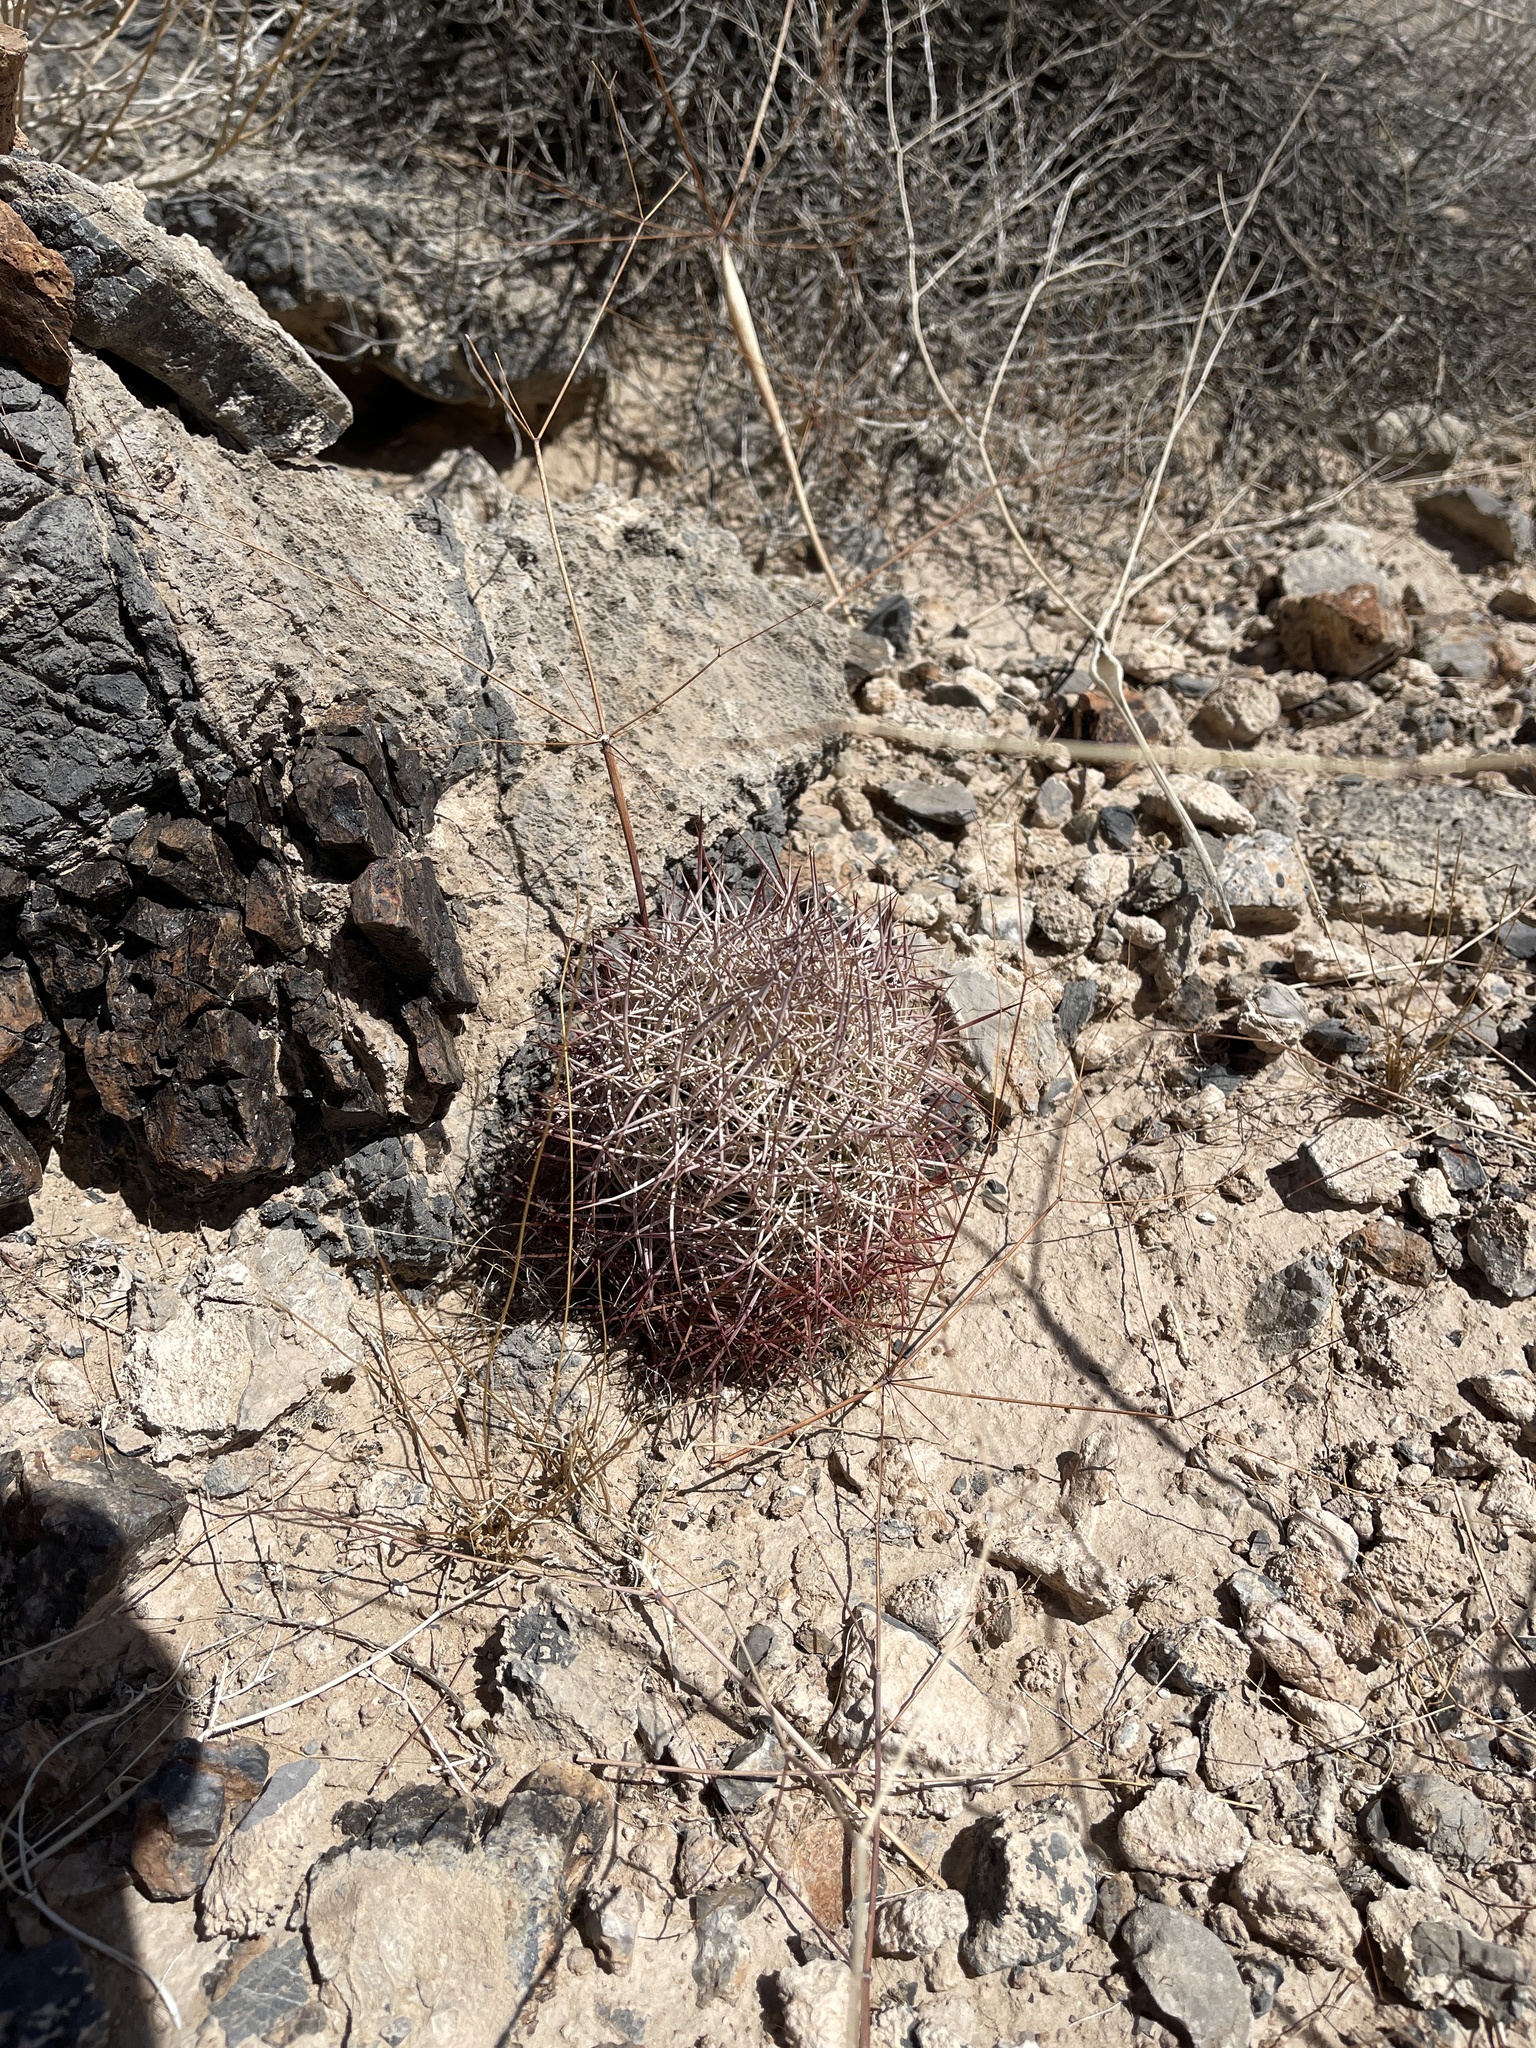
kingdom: Plantae
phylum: Tracheophyta
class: Magnoliopsida
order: Caryophyllales
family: Cactaceae
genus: Sclerocactus
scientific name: Sclerocactus johnsonii
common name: Eight-spine fishhook cactus
